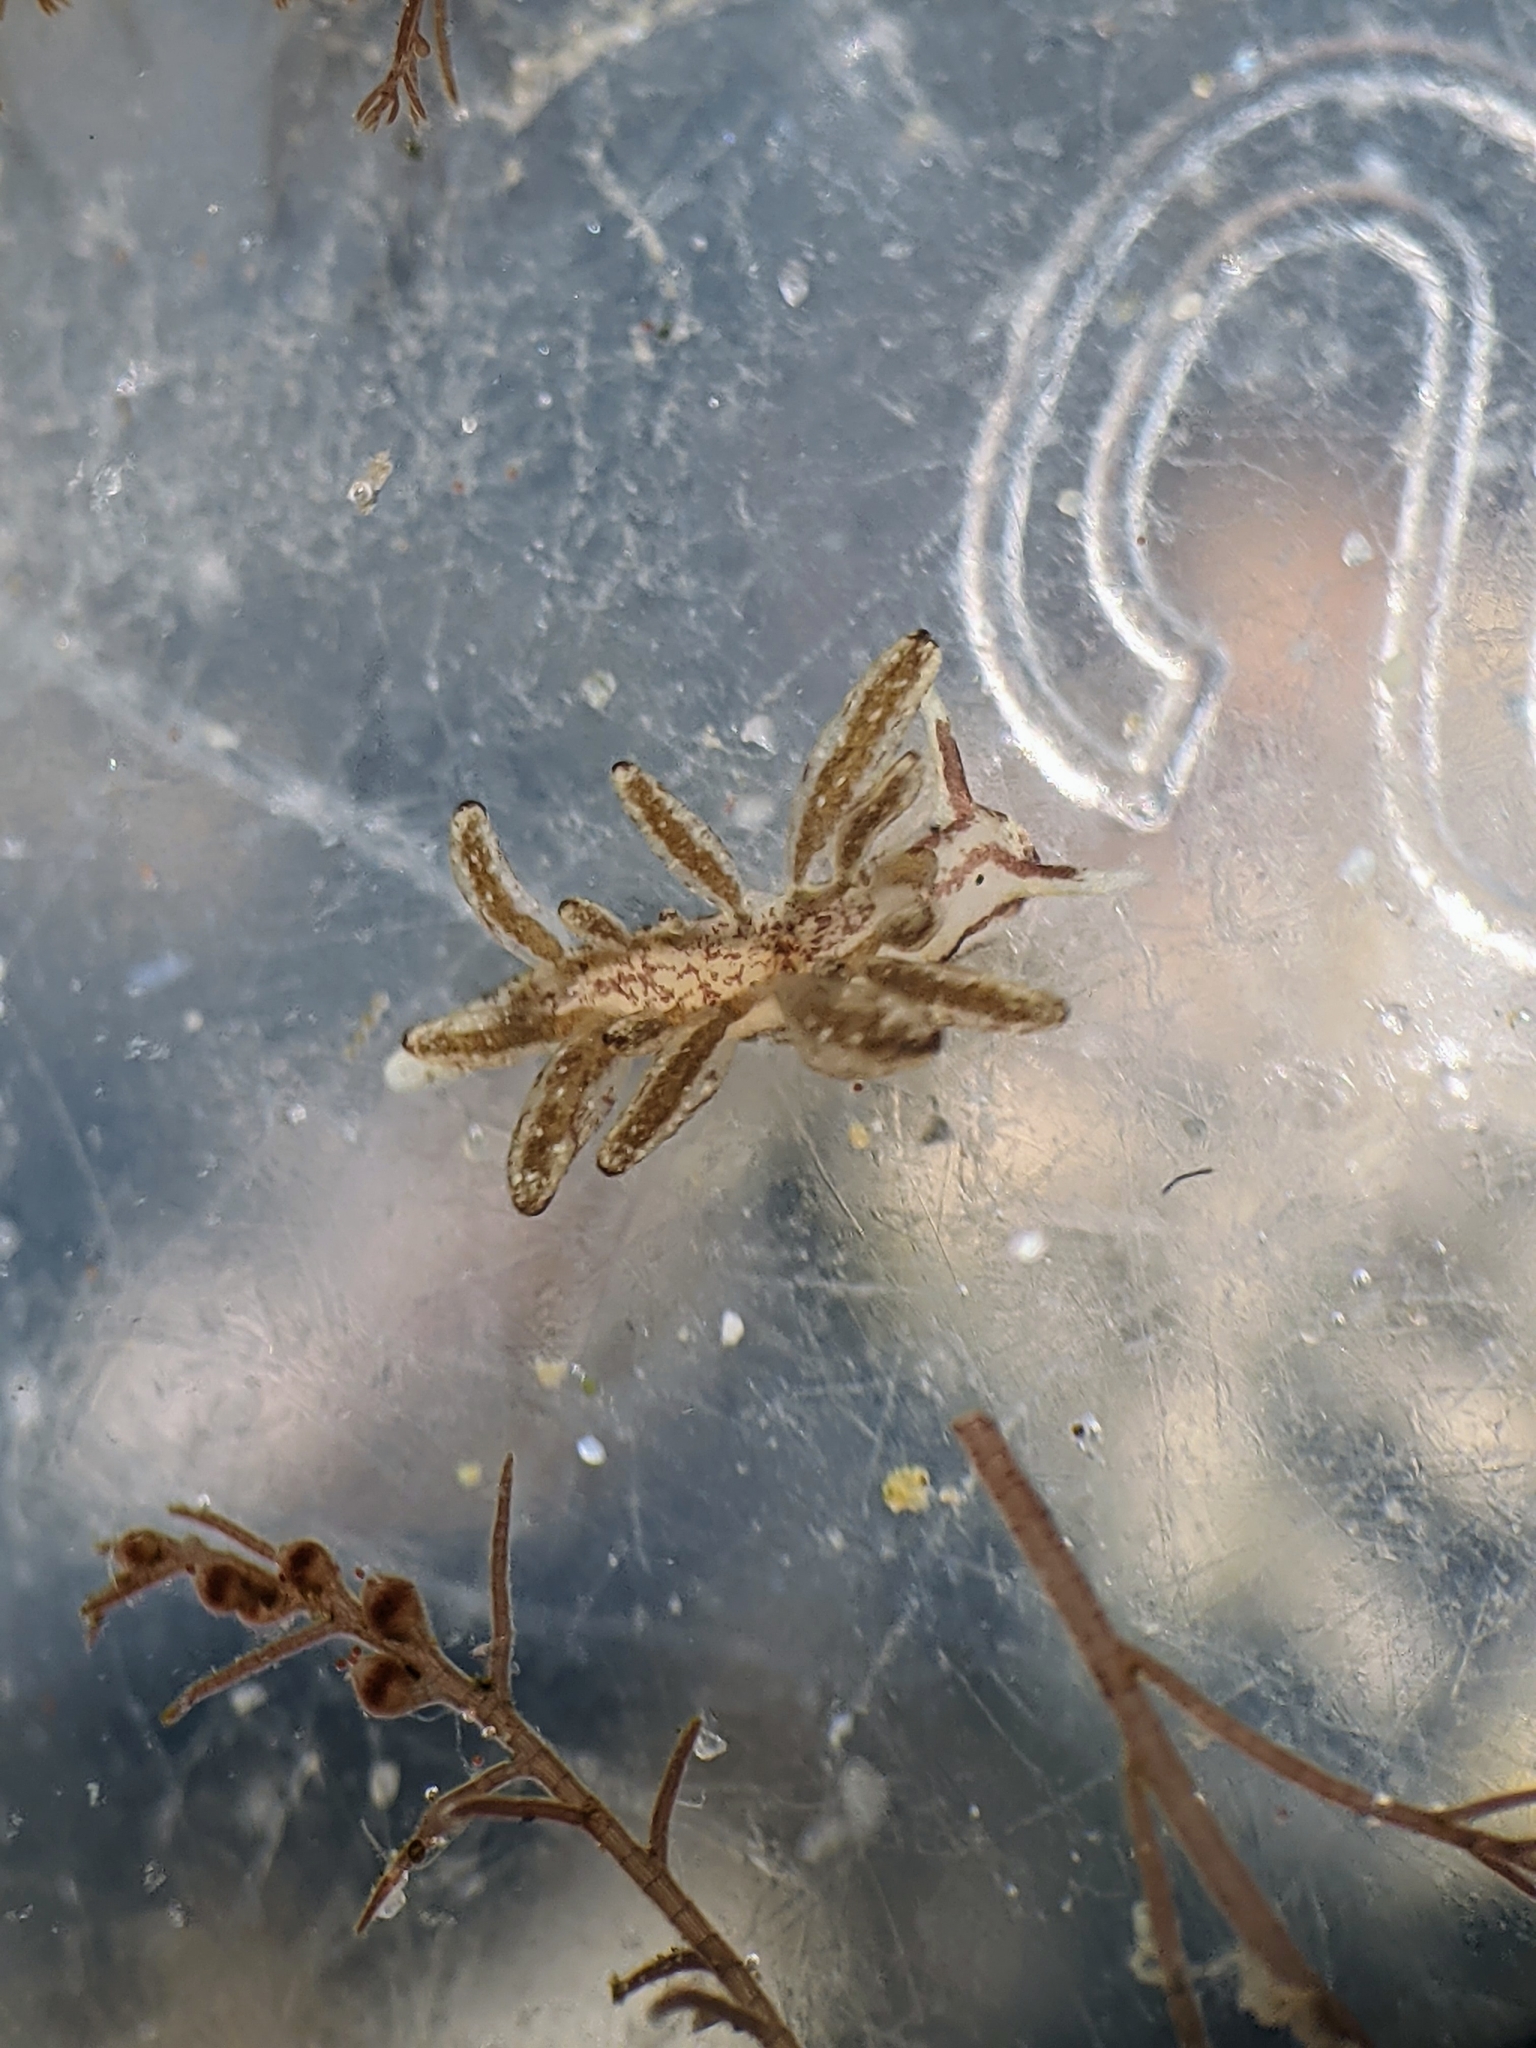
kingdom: Animalia
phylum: Mollusca
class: Gastropoda
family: Limapontiidae
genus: Stiliger
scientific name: Stiliger fuscovittatus
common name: Brown-streak stiliger
